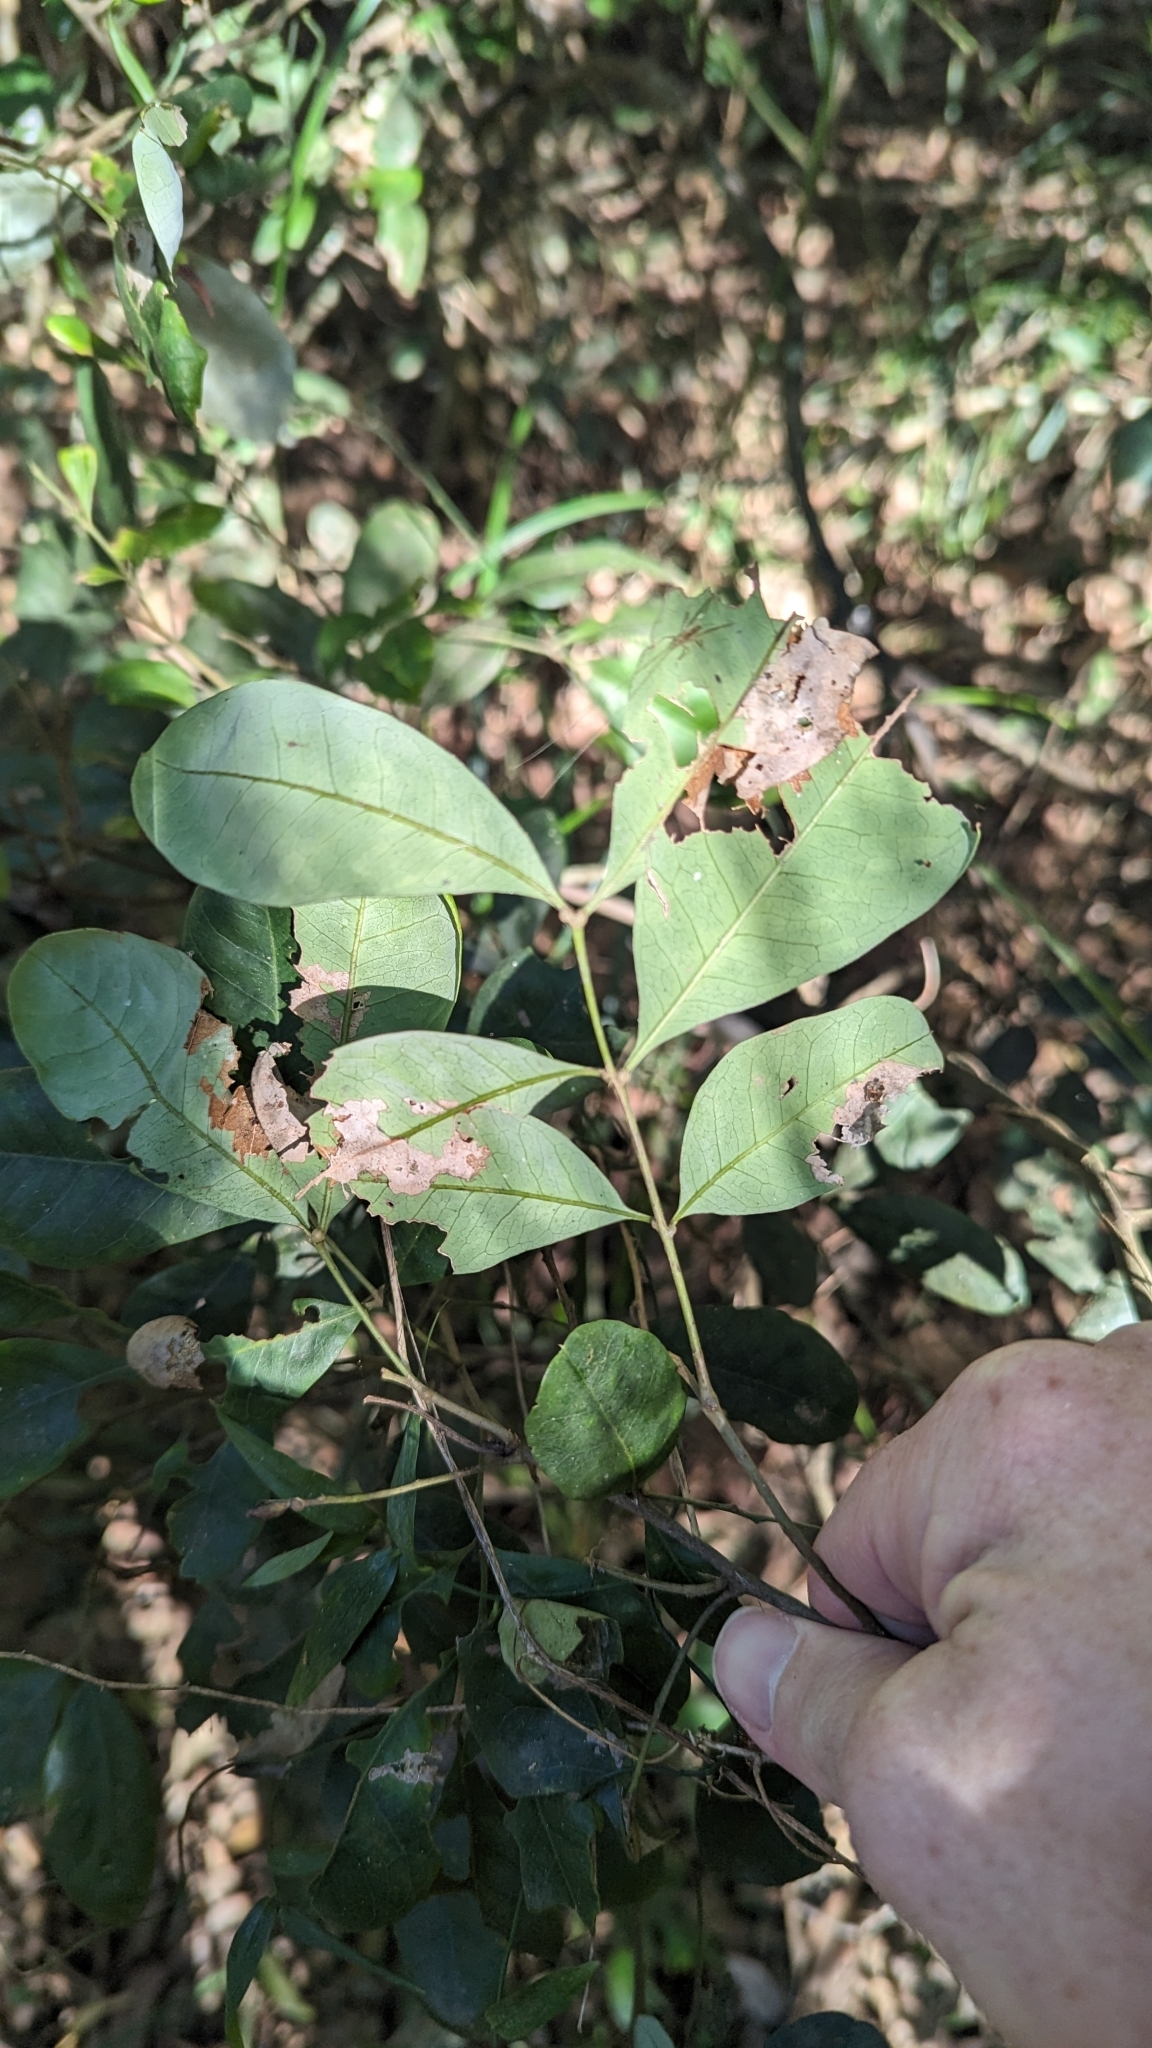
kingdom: Plantae
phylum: Tracheophyta
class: Magnoliopsida
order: Sapindales
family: Sapindaceae
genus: Guioa
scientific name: Guioa semiglauca
